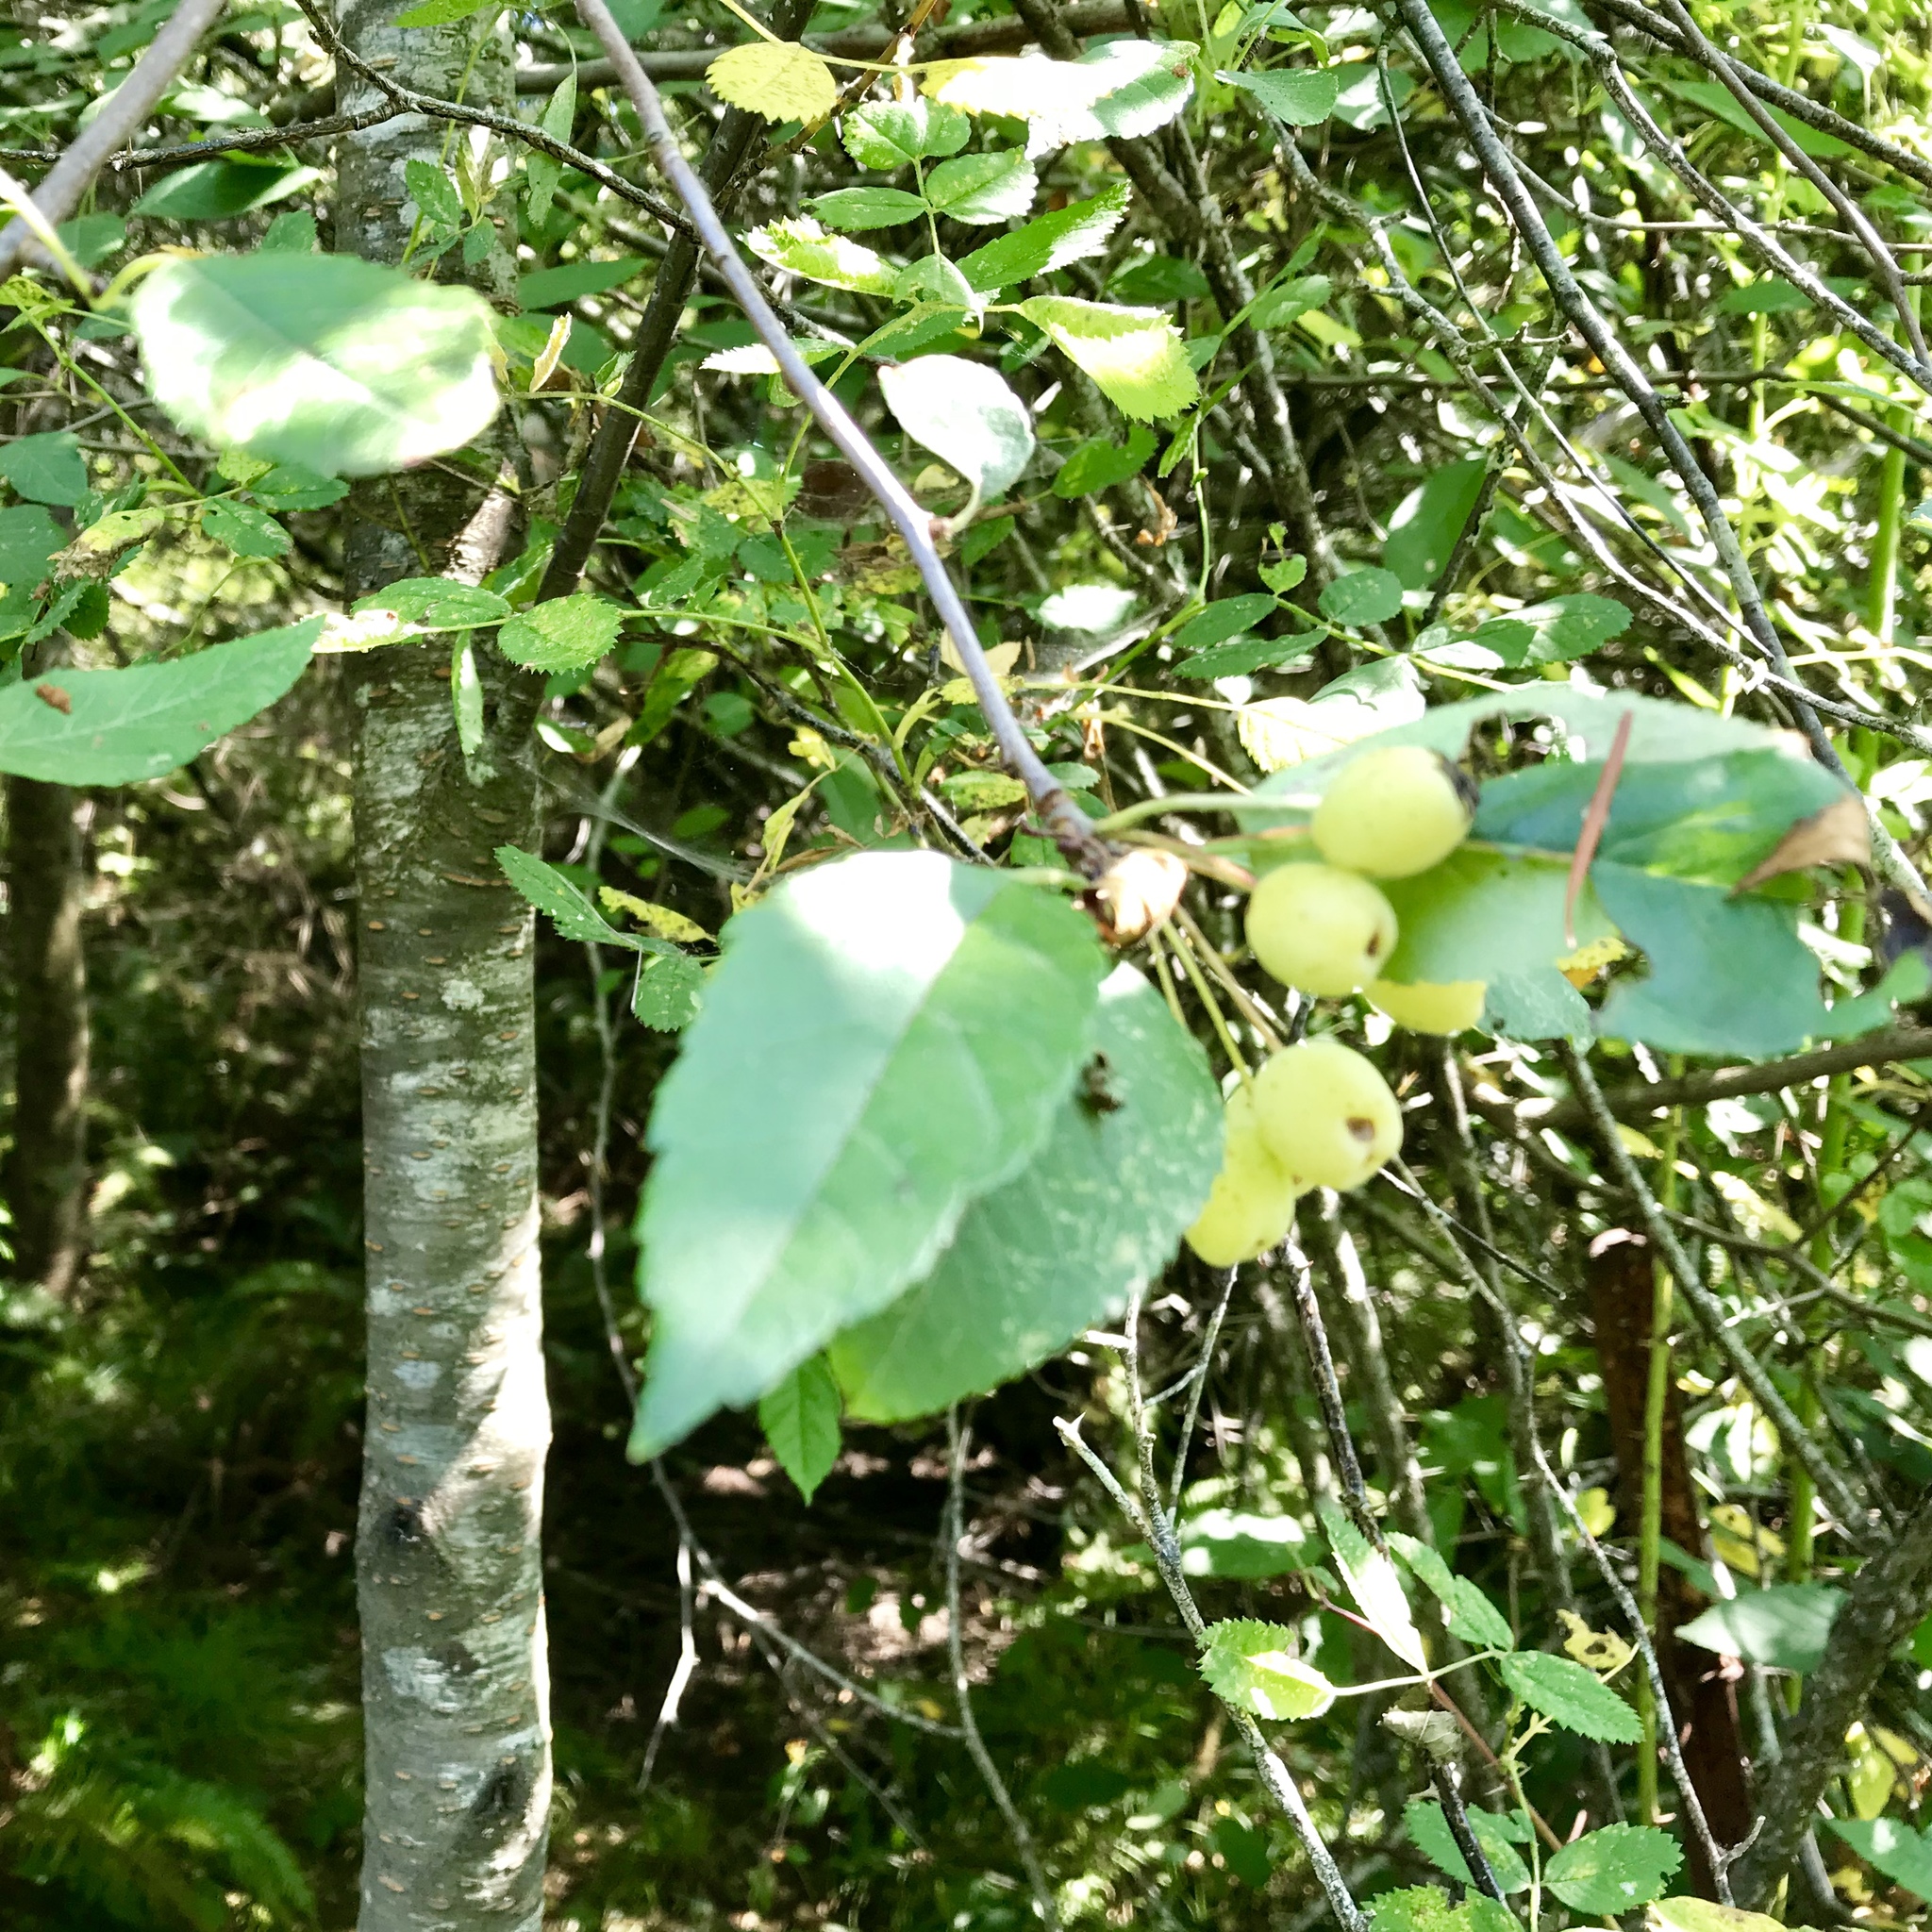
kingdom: Plantae
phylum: Tracheophyta
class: Magnoliopsida
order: Rosales
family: Rosaceae
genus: Malus
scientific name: Malus fusca
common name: Oregon crab apple
